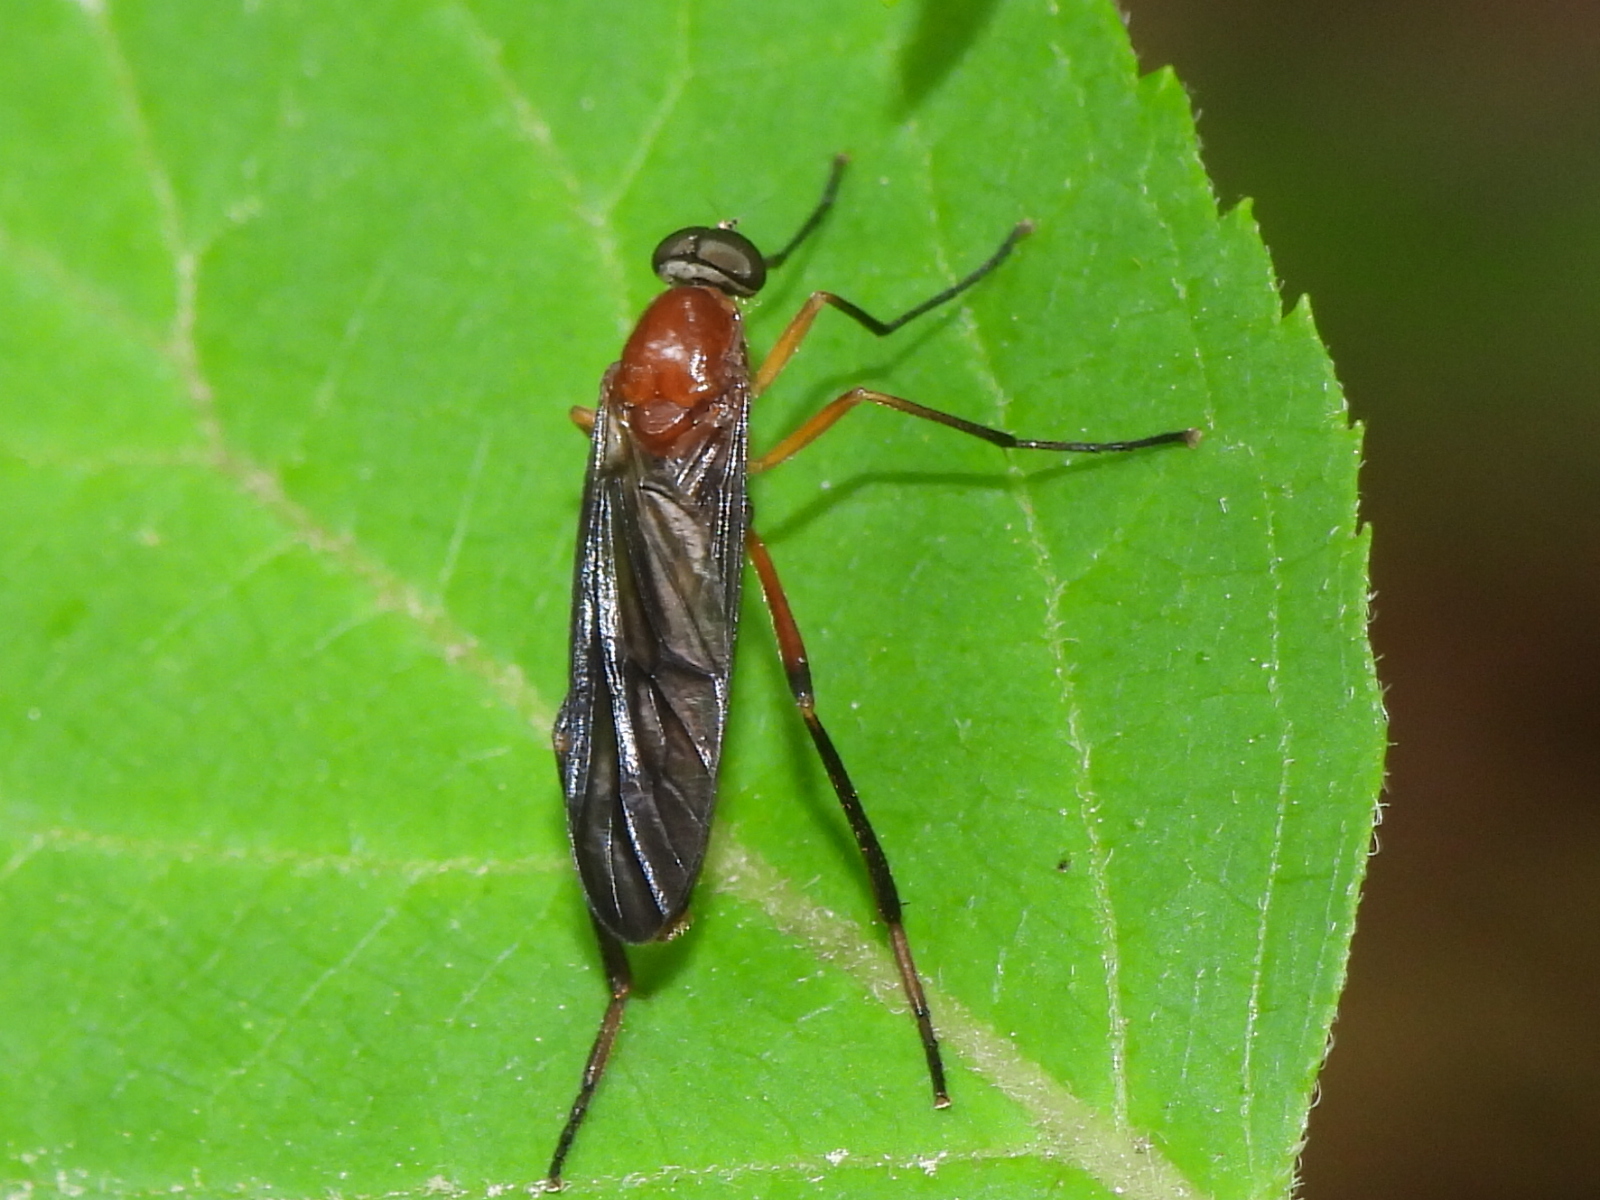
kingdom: Animalia
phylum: Arthropoda
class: Insecta
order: Diptera
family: Xylophagidae
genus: Dialysis
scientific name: Dialysis rufithorax
